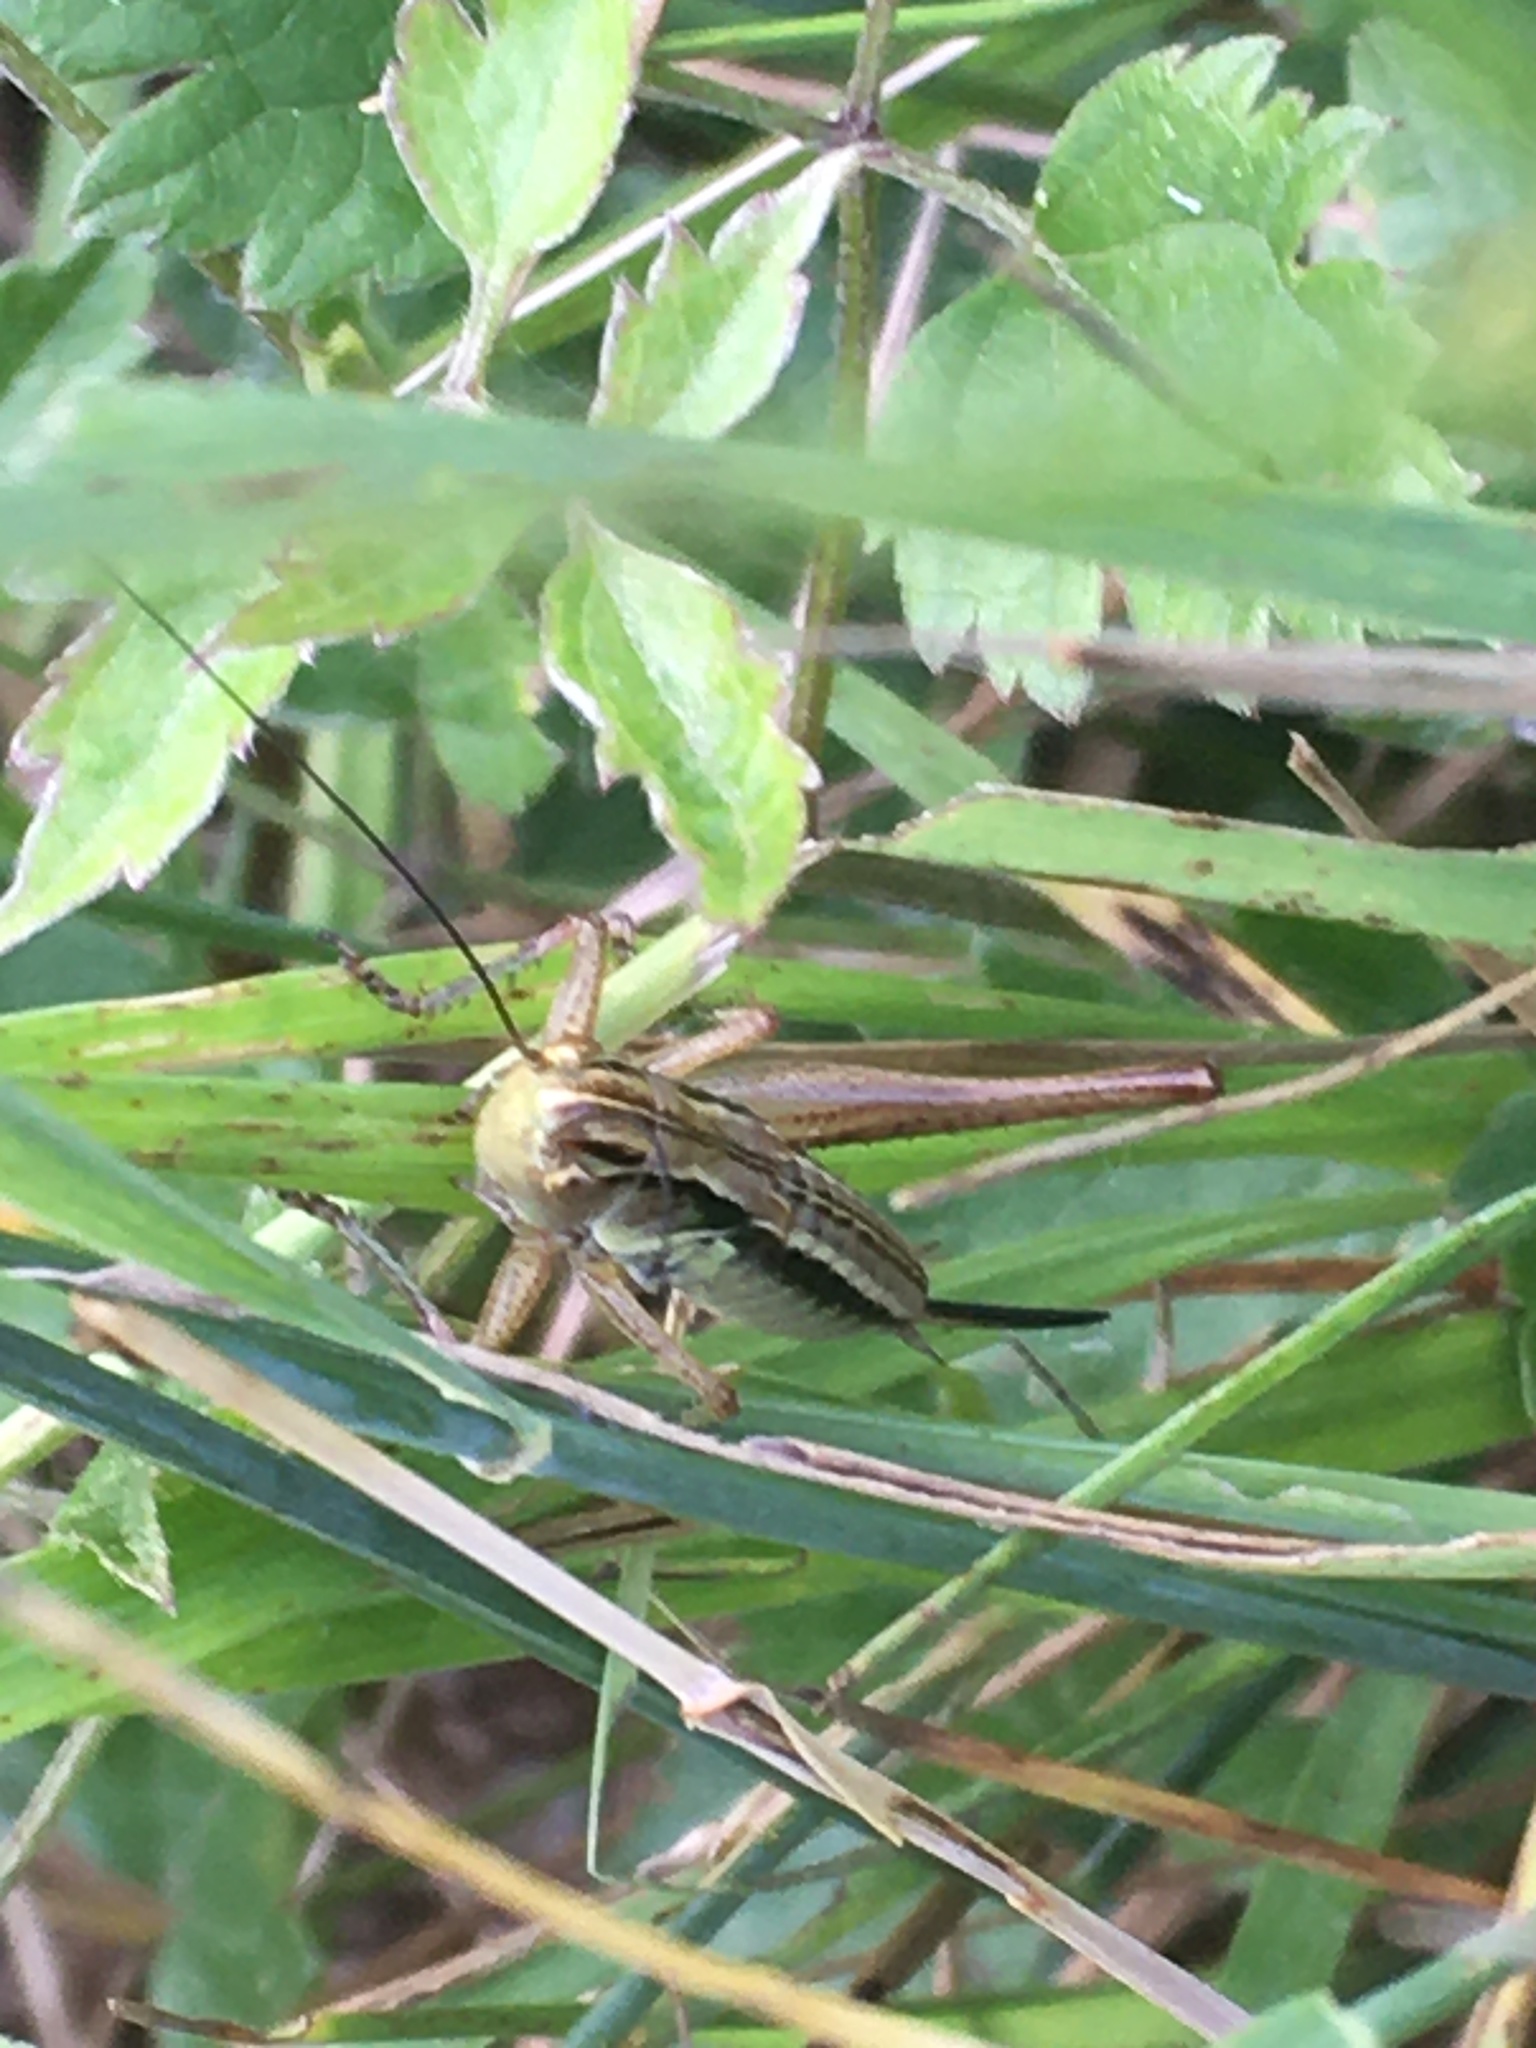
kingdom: Animalia
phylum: Arthropoda
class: Insecta
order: Orthoptera
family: Tettigoniidae
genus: Roeseliana
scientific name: Roeseliana roeselii
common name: Roesel's bush cricket
